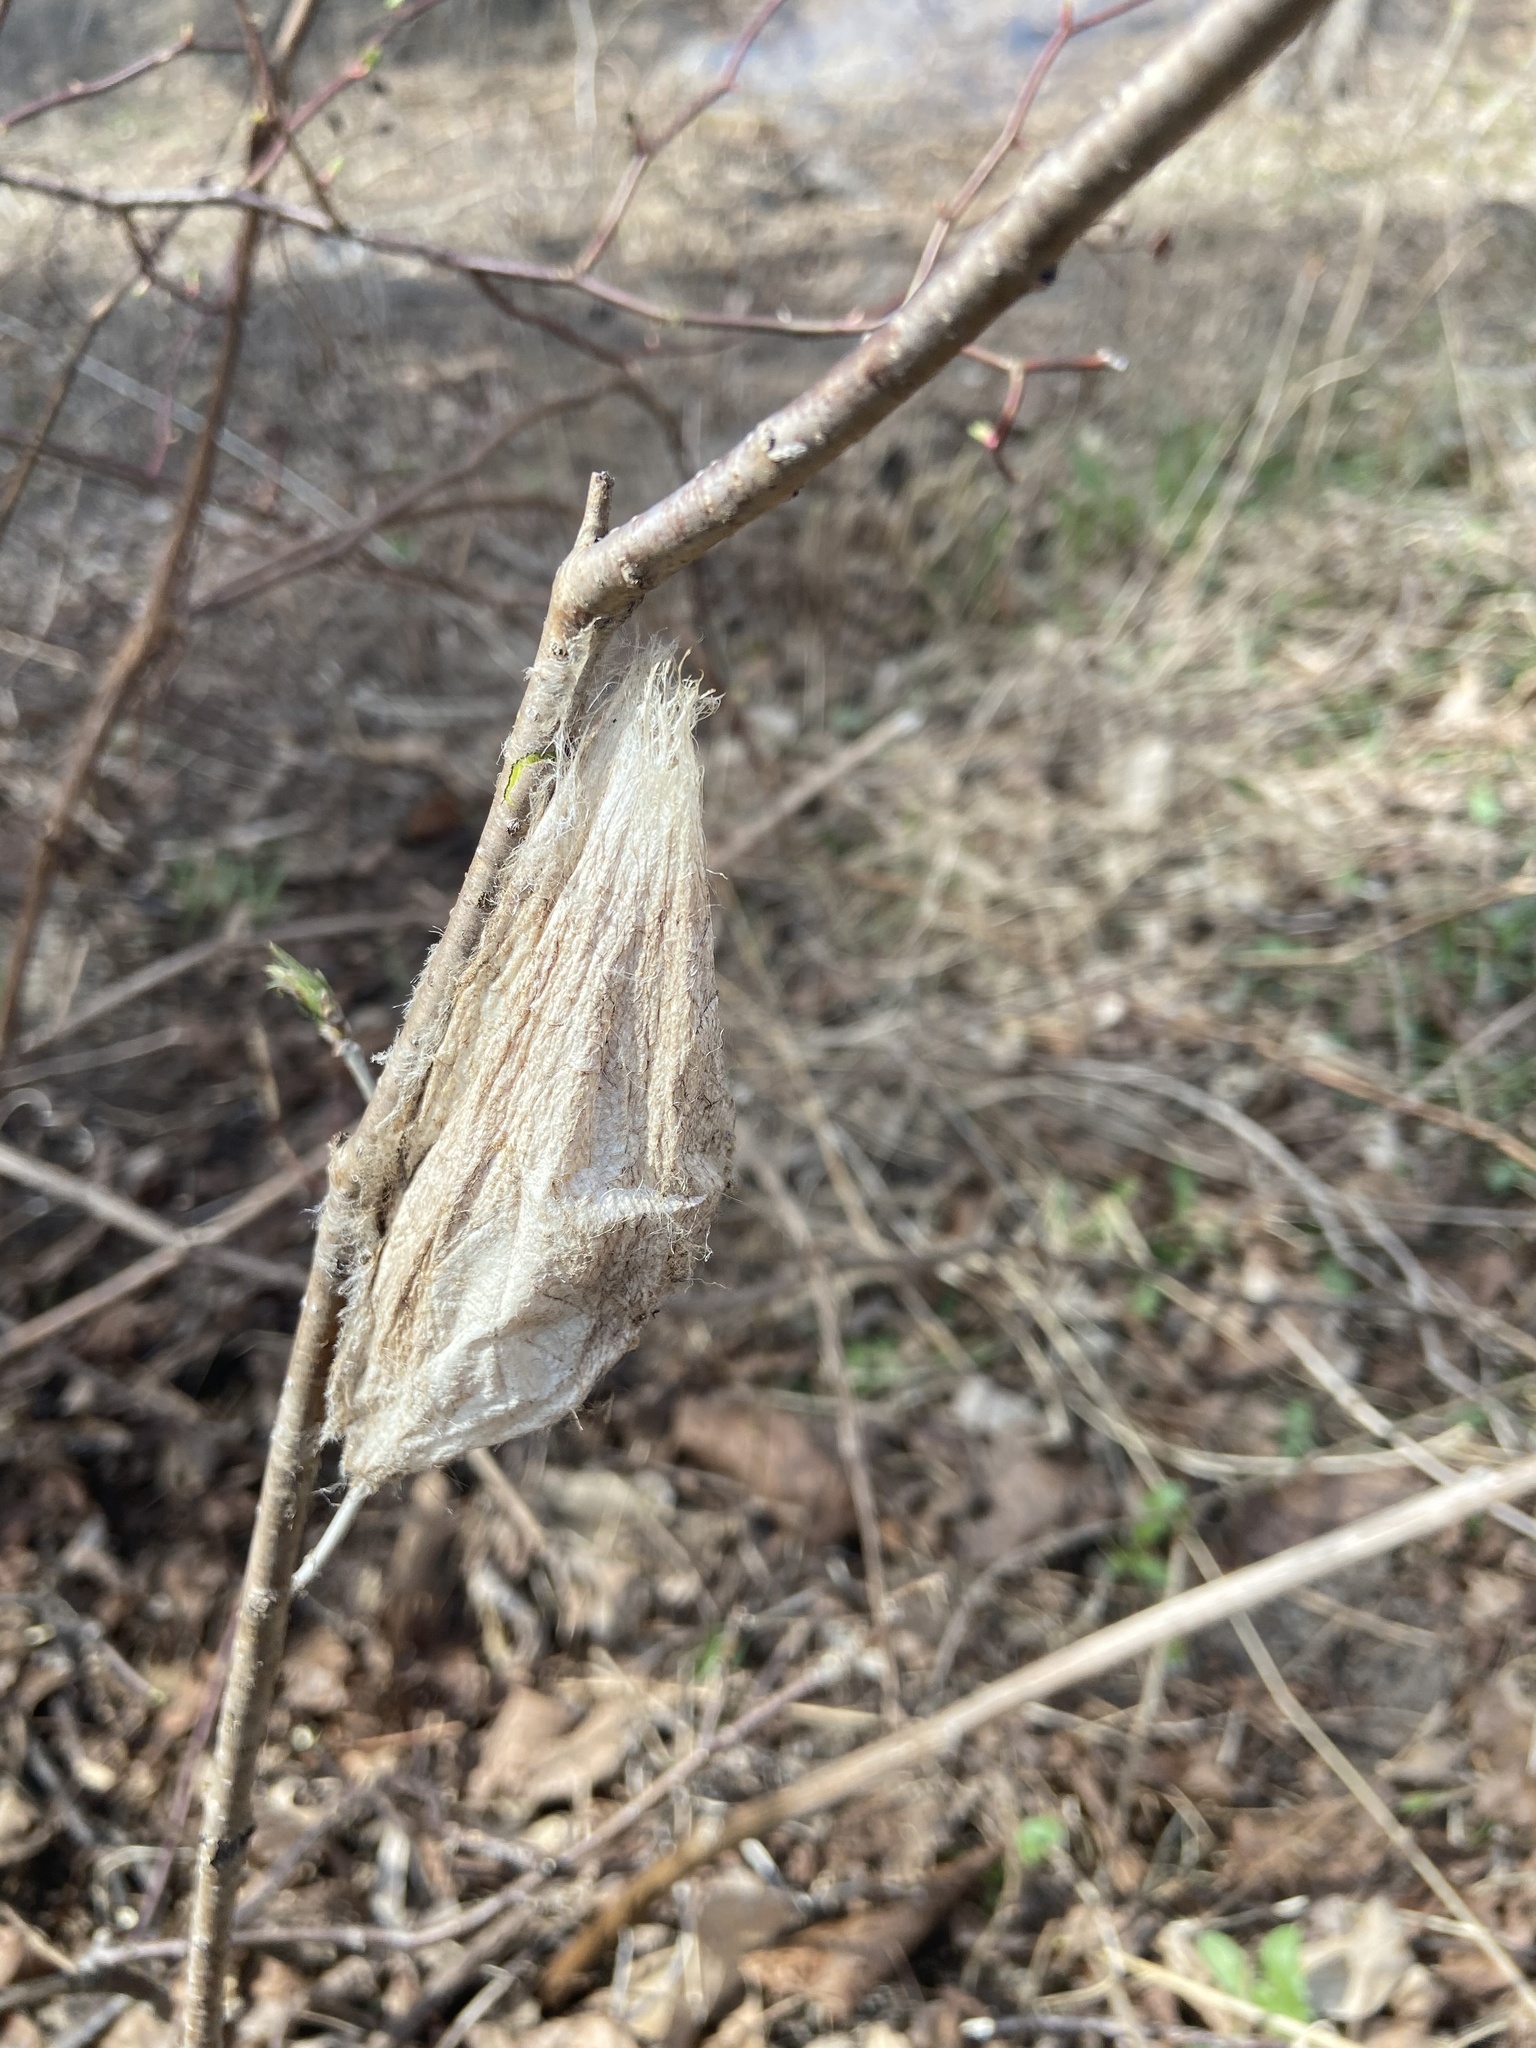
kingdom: Animalia
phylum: Arthropoda
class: Insecta
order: Lepidoptera
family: Saturniidae
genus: Hyalophora
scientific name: Hyalophora cecropia
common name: Cecropia silkmoth
